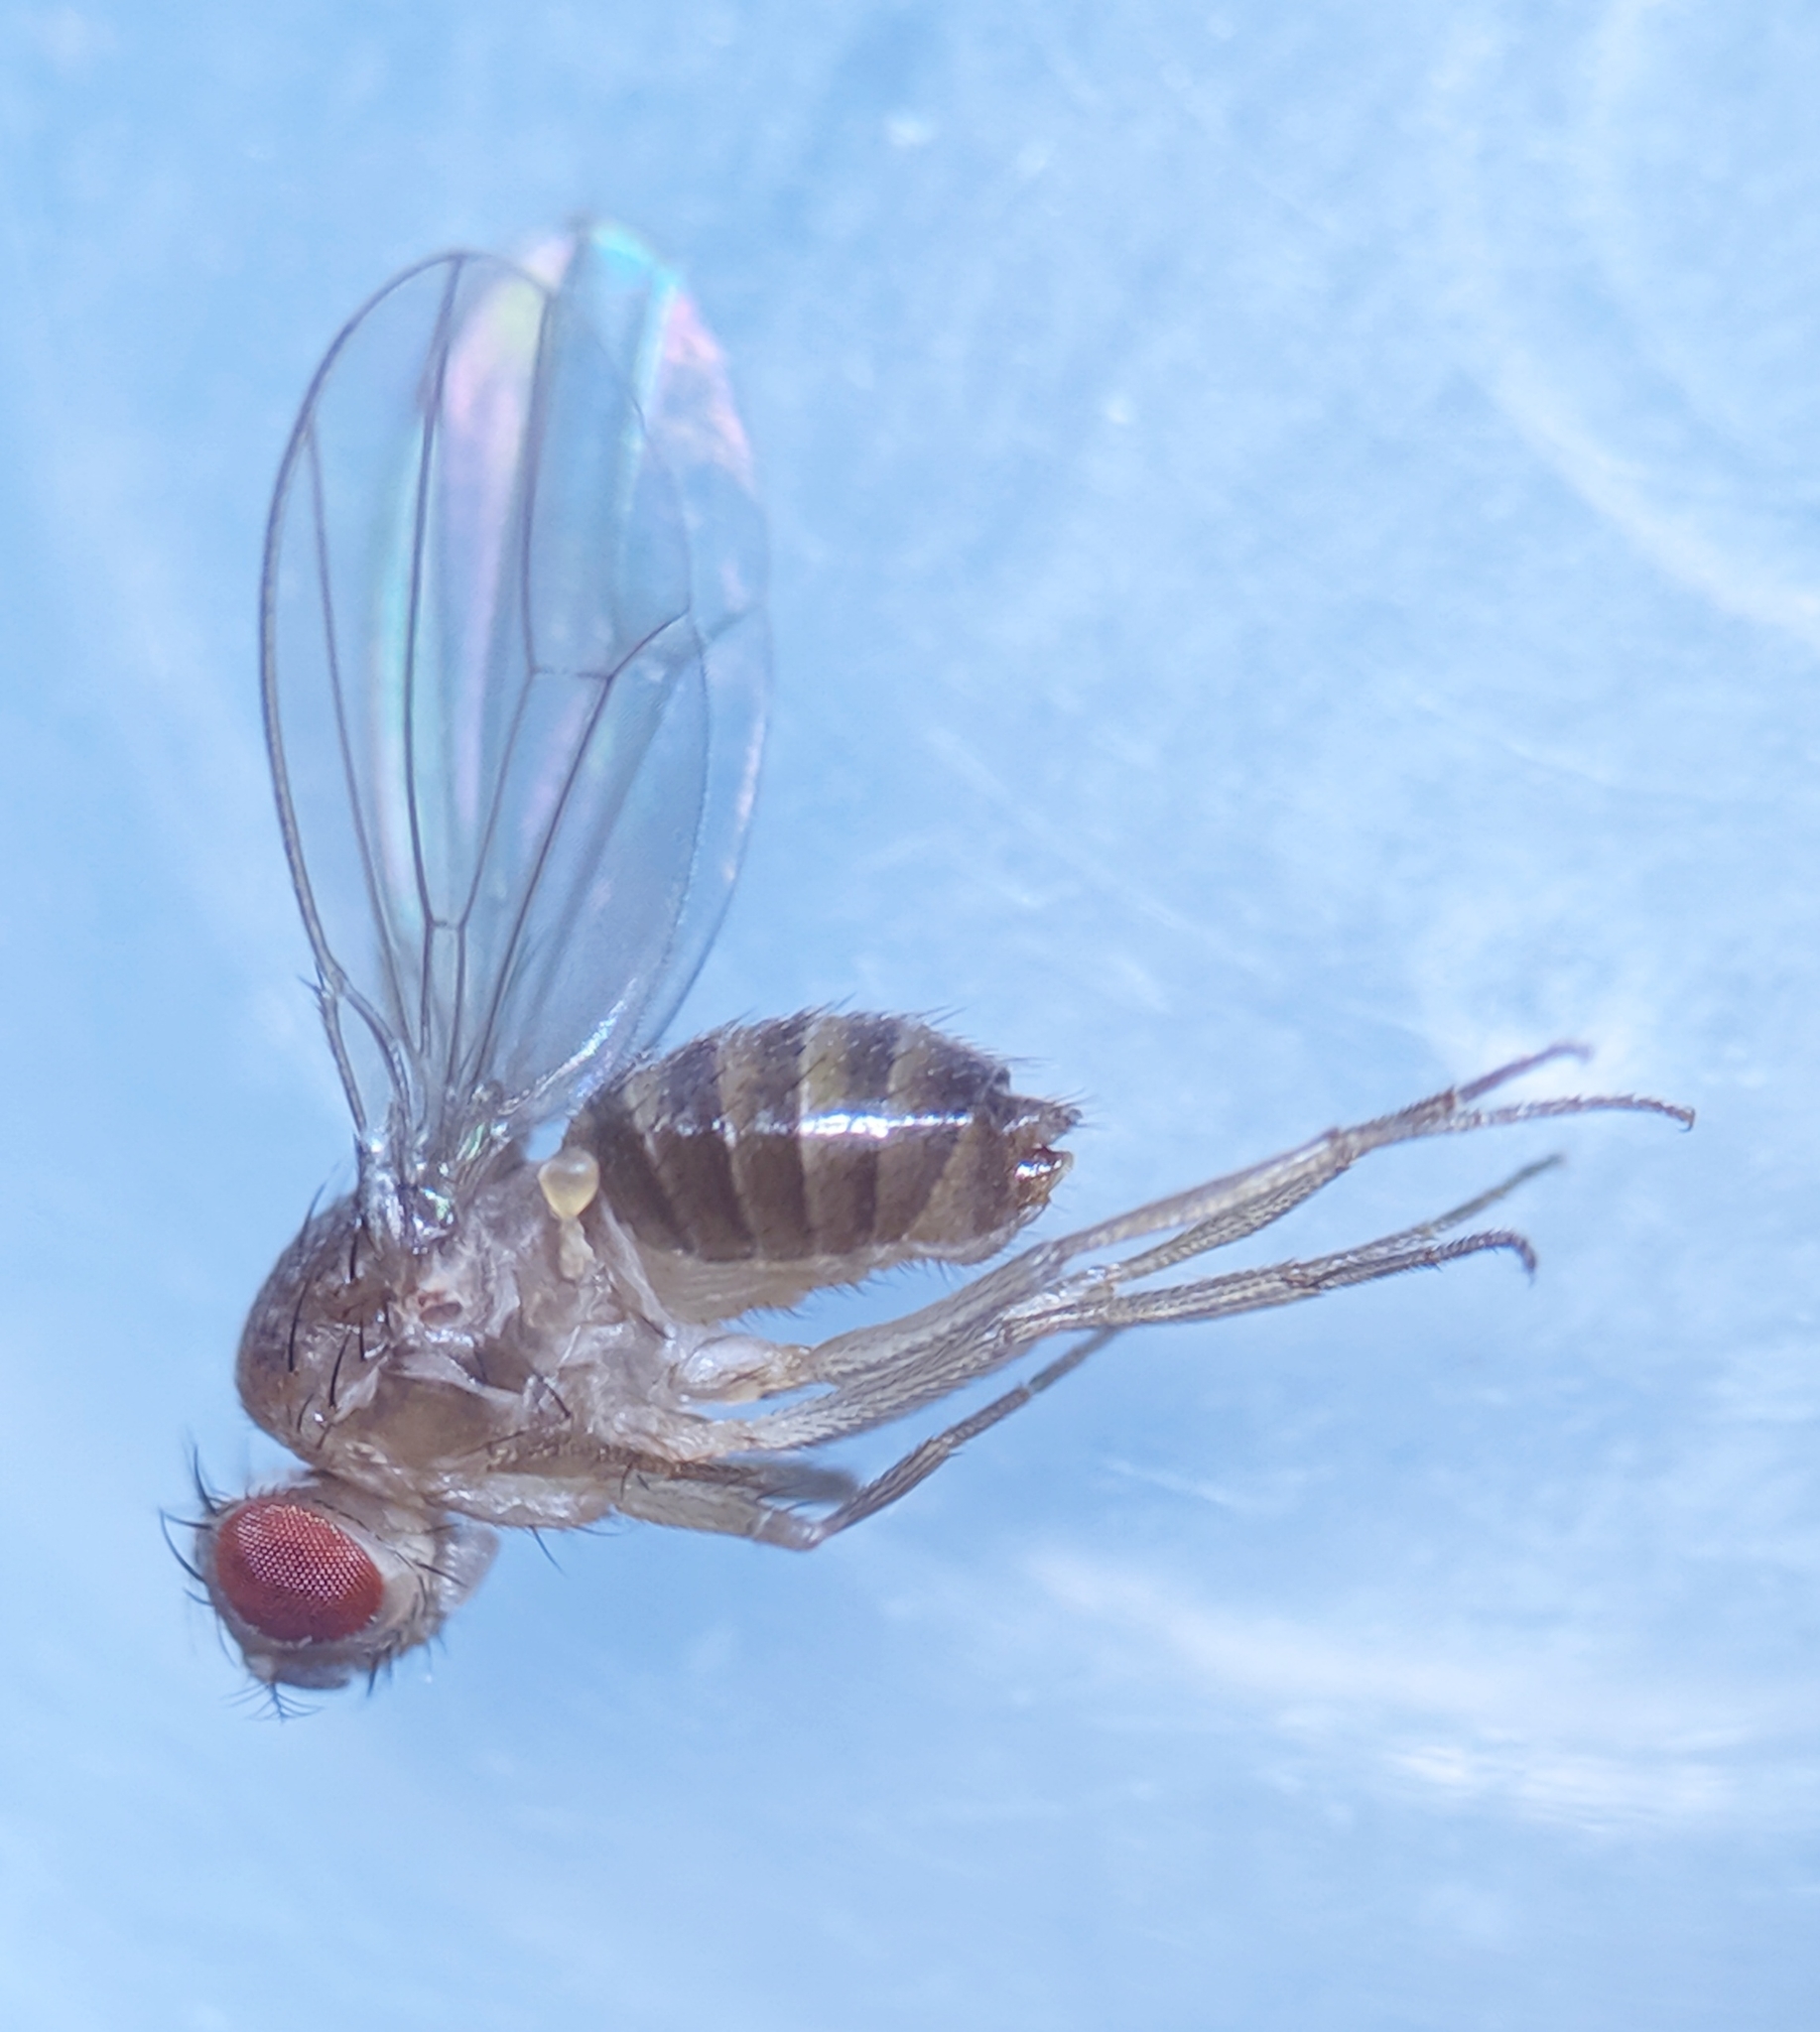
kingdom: Animalia
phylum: Arthropoda
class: Insecta
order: Diptera
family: Drosophilidae
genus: Drosophila
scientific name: Drosophila funebris
